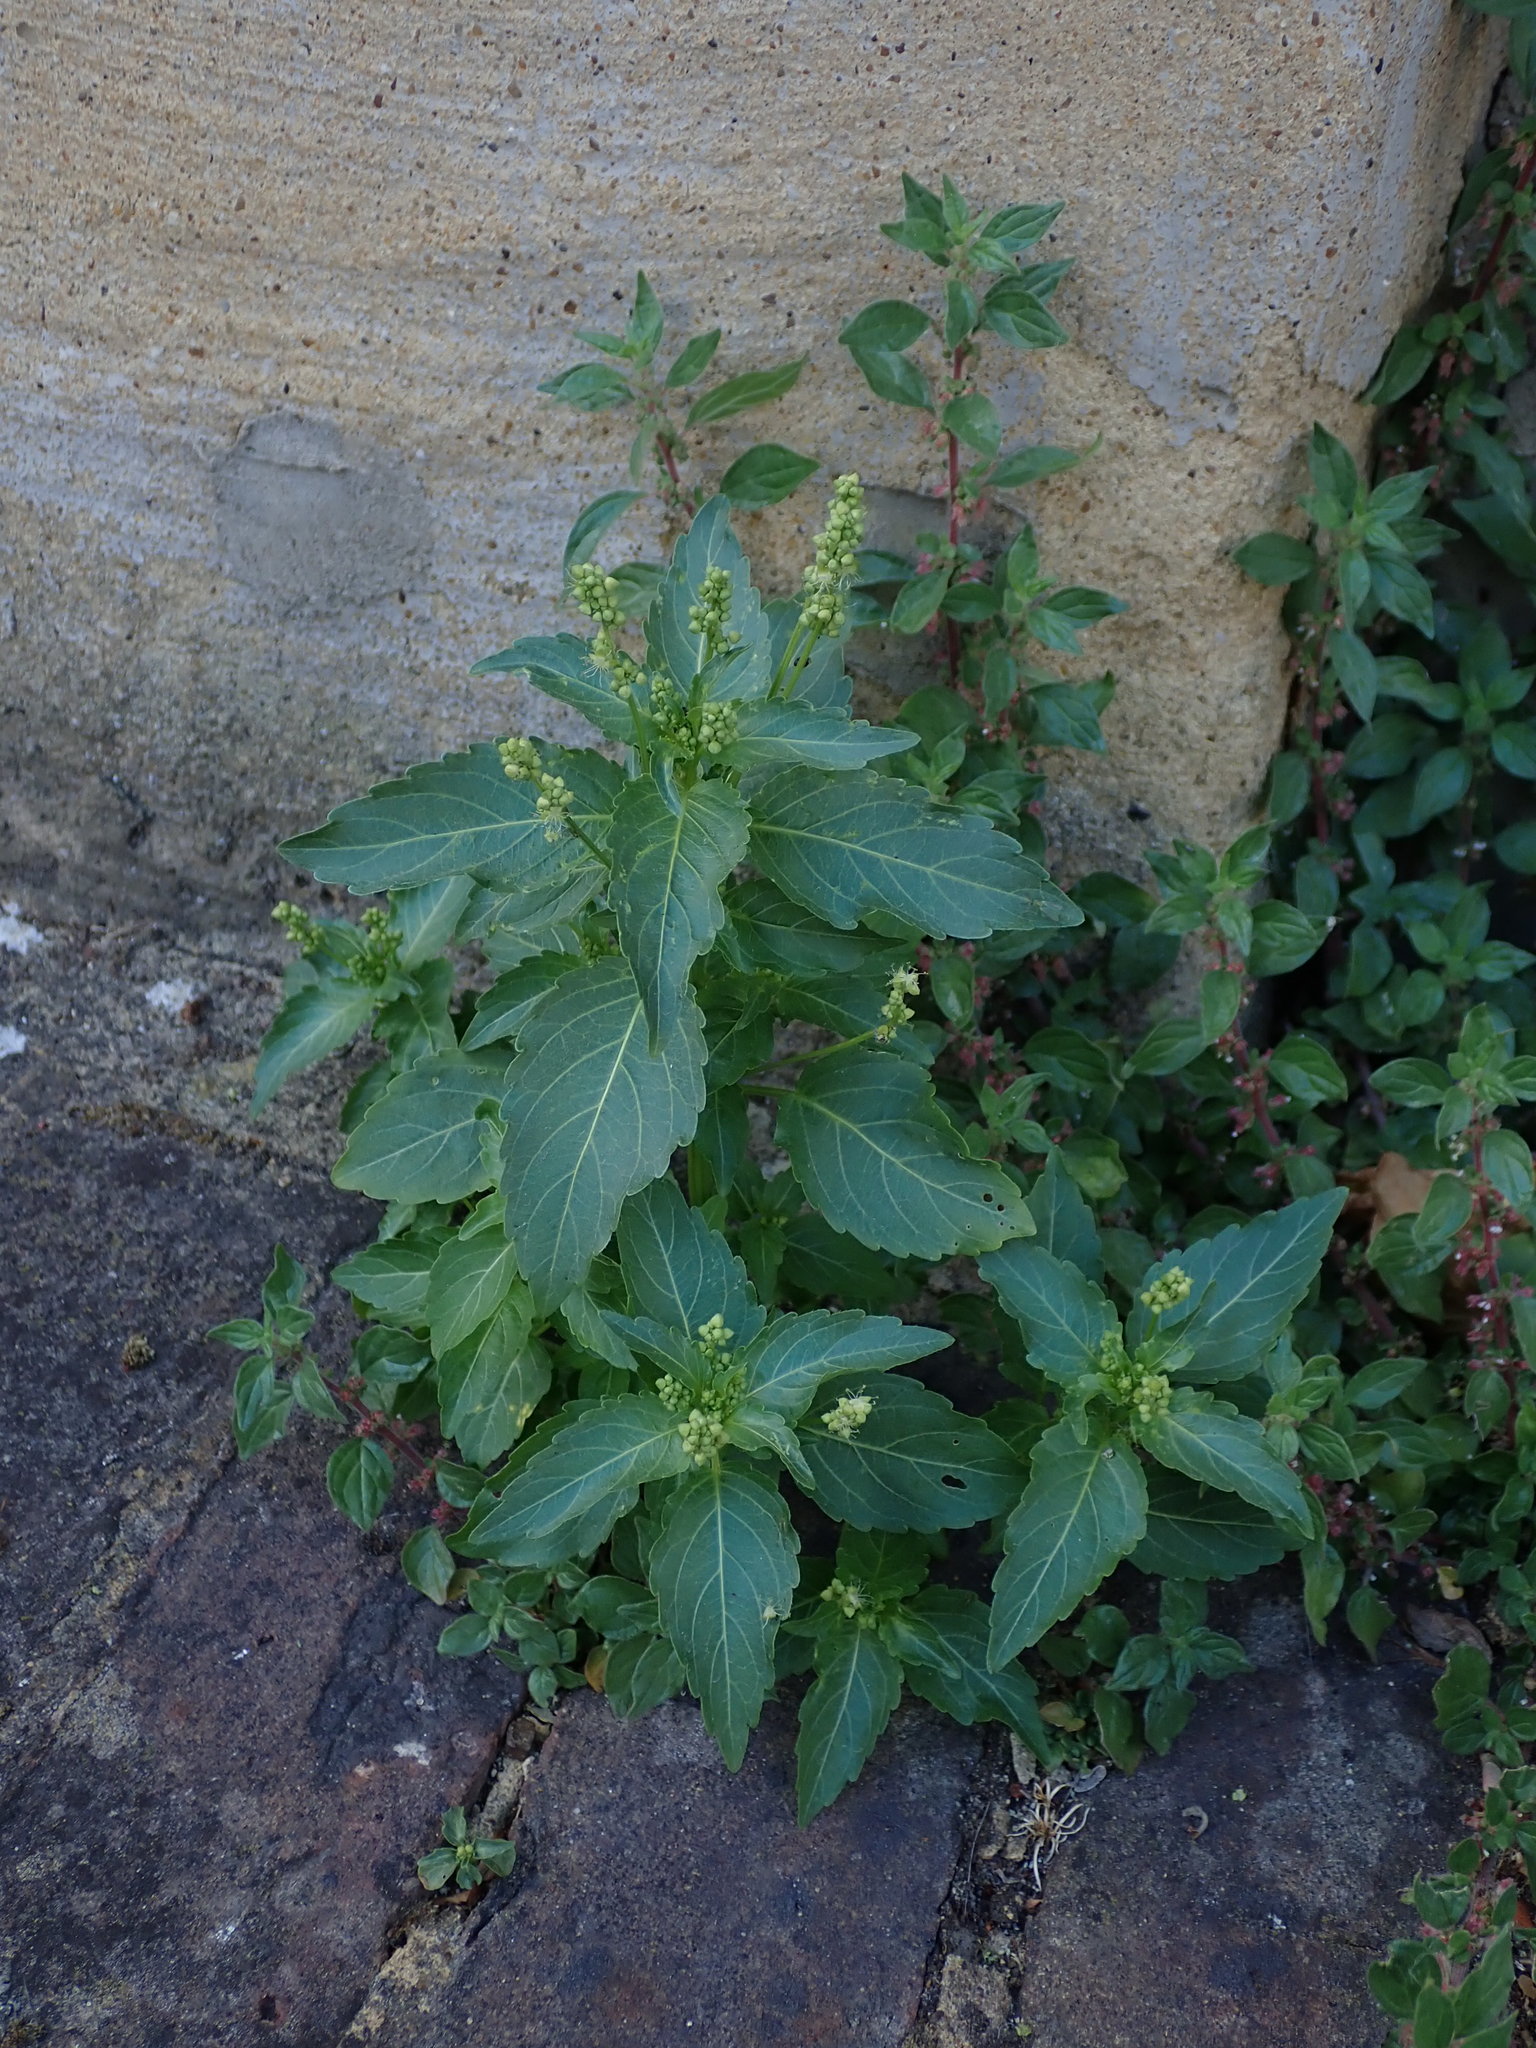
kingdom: Plantae
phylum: Tracheophyta
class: Magnoliopsida
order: Malpighiales
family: Euphorbiaceae
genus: Mercurialis
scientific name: Mercurialis annua
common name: Annual mercury
